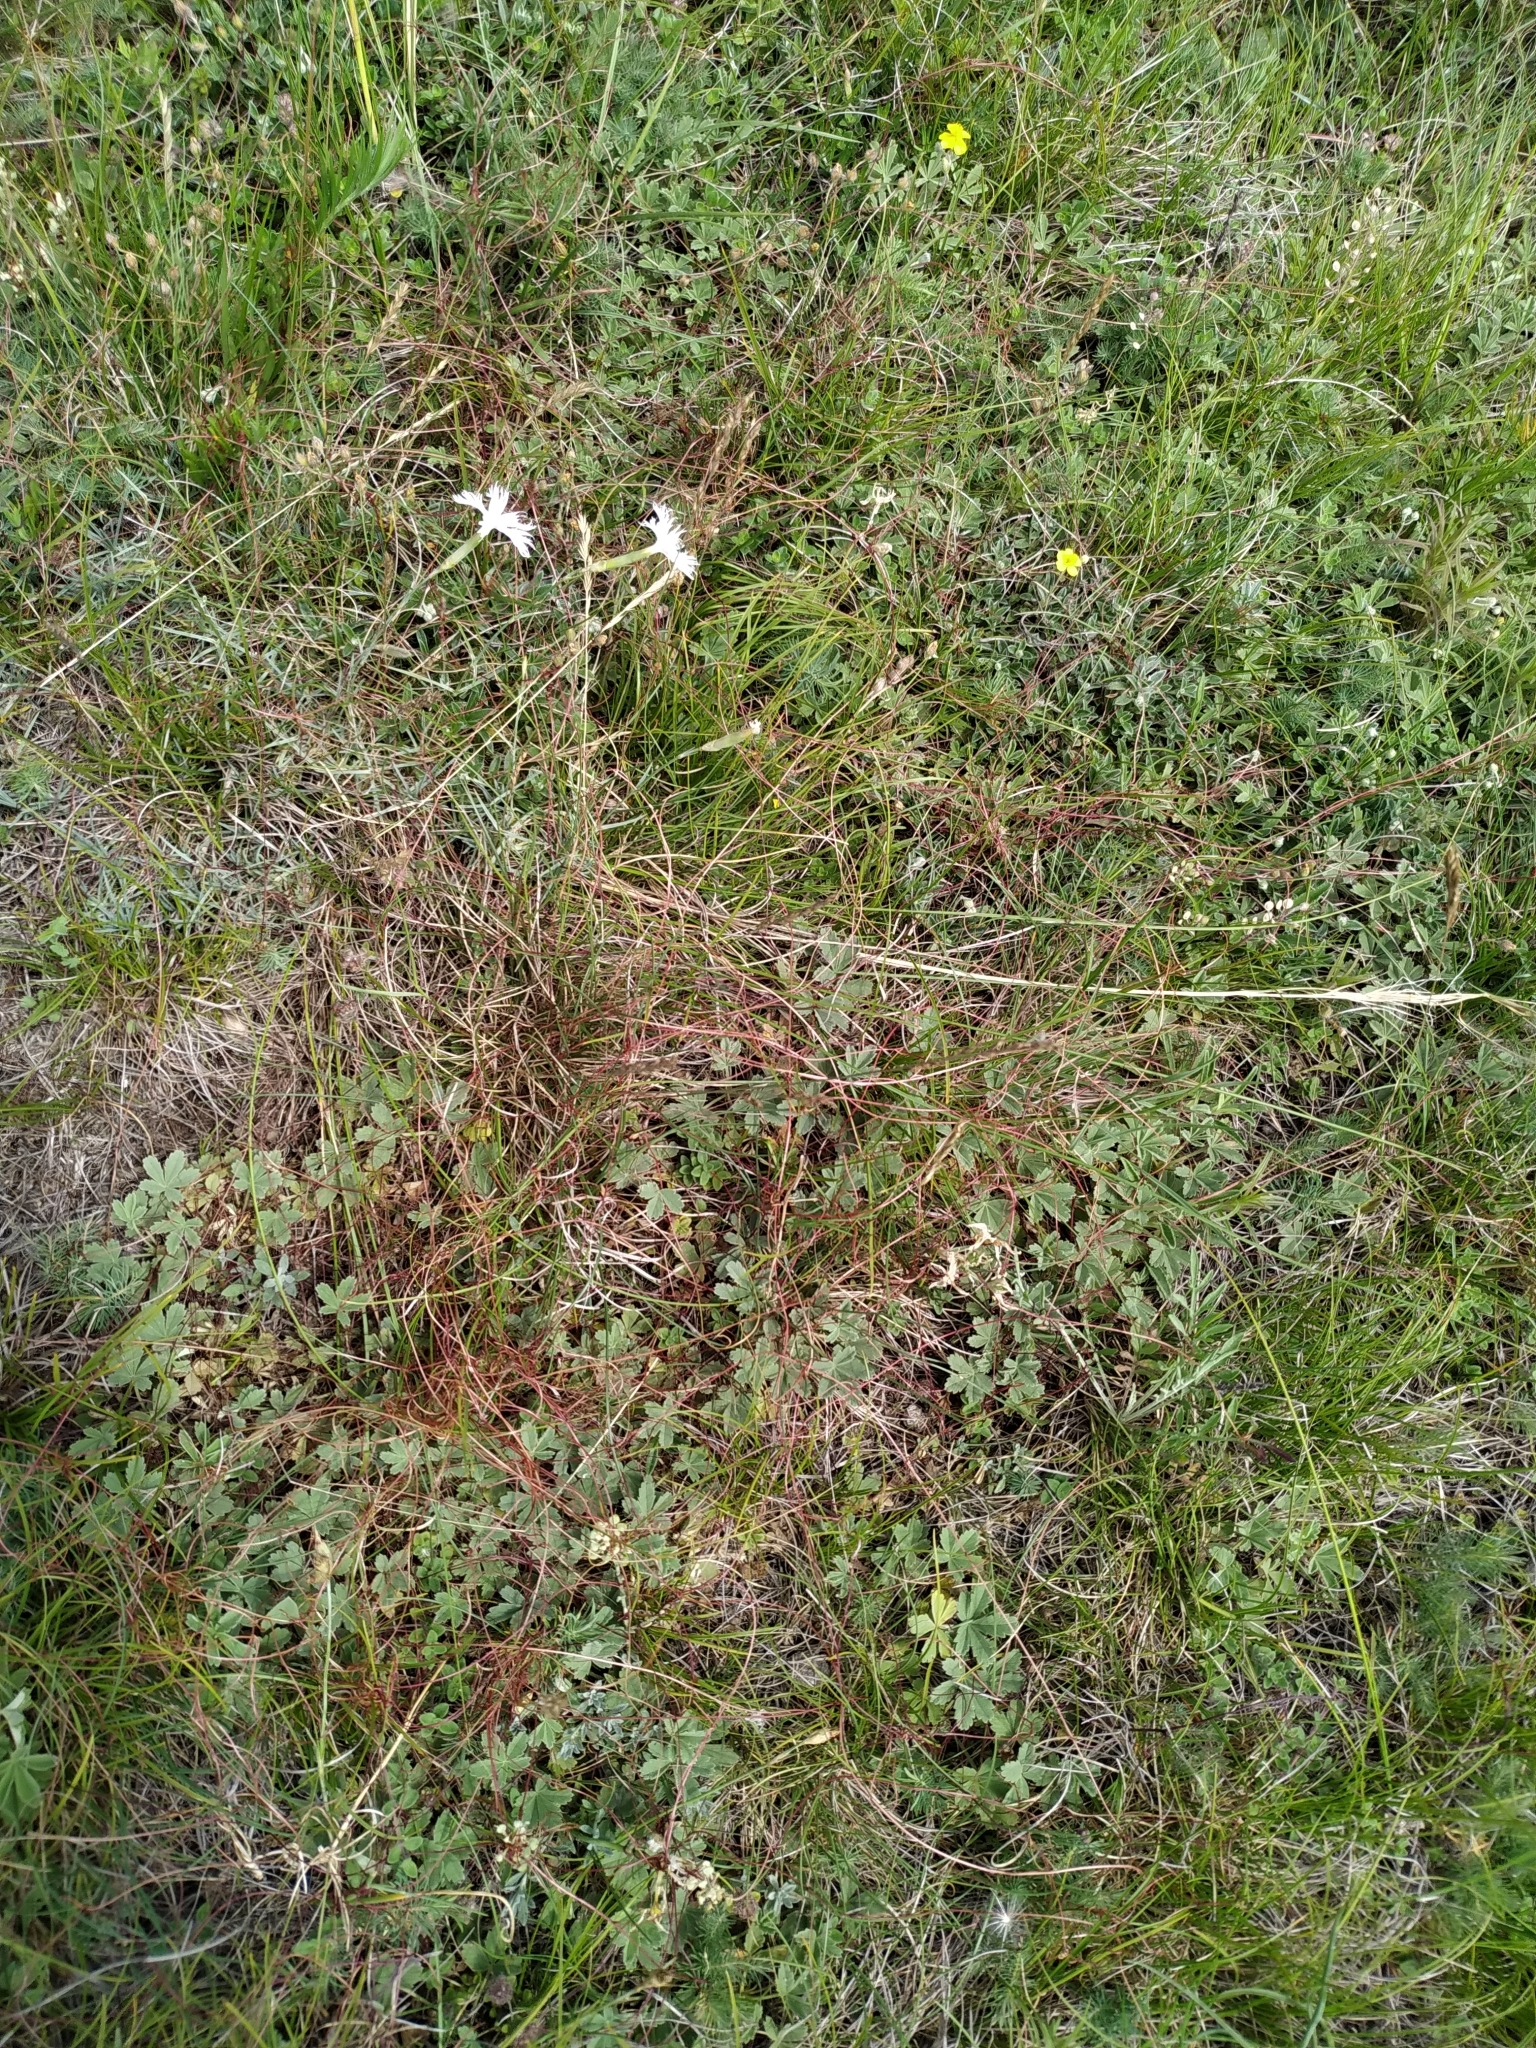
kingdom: Plantae
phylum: Tracheophyta
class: Magnoliopsida
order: Solanales
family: Convolvulaceae
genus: Cuscuta
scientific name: Cuscuta epithymum
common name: Clover dodder
